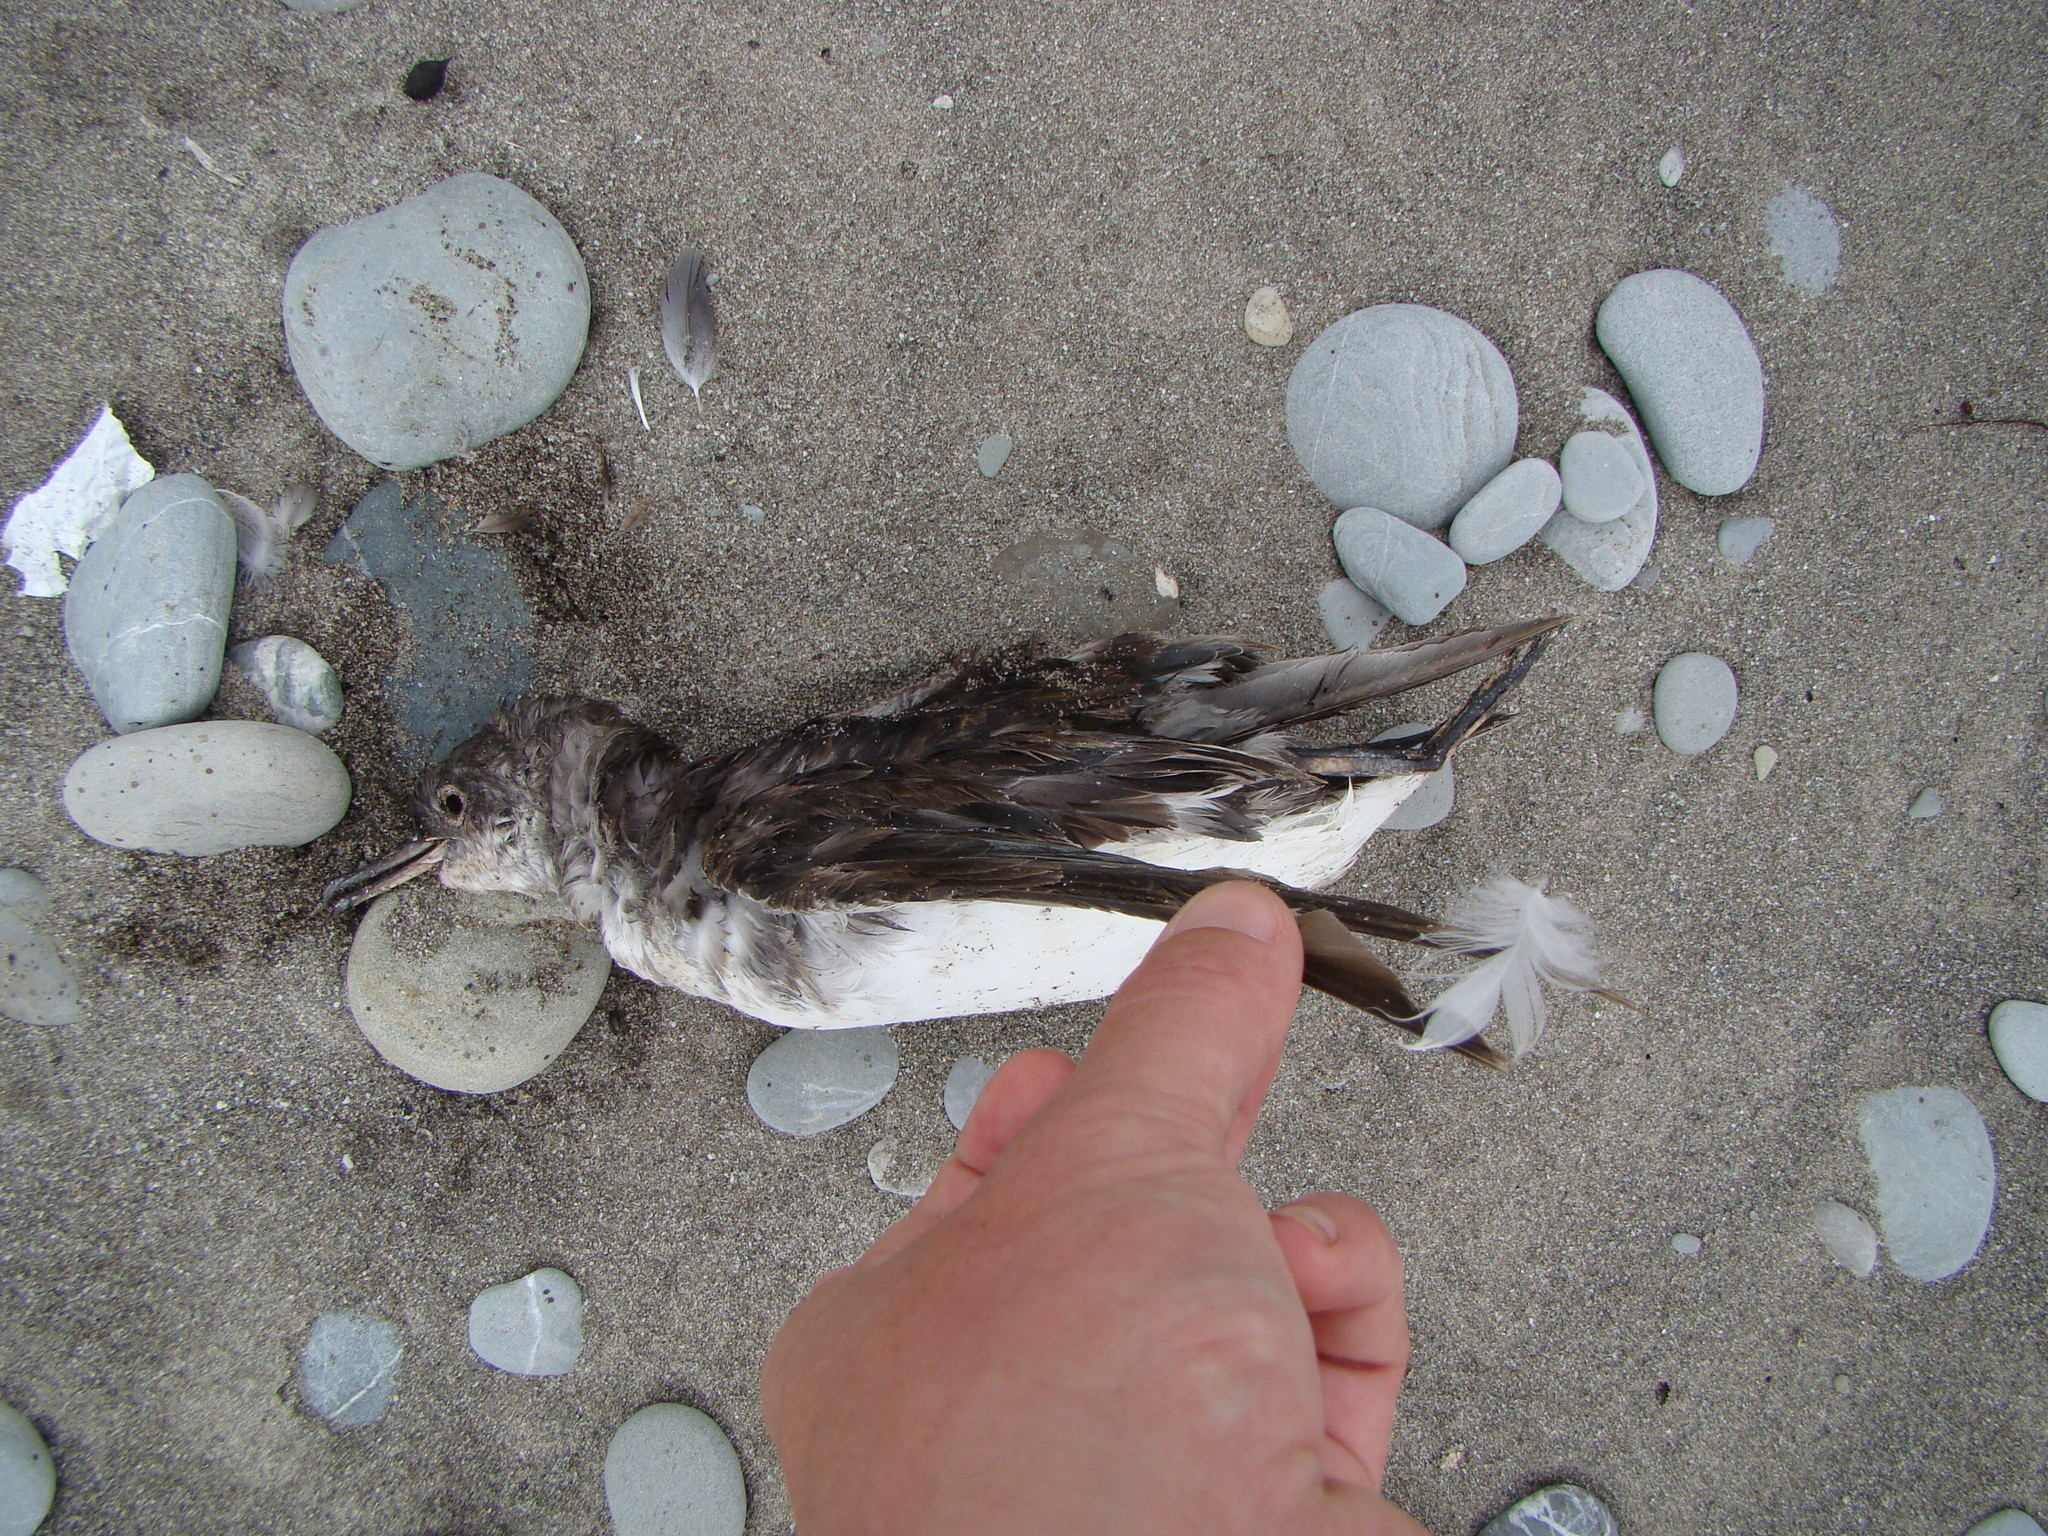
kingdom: Animalia
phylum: Chordata
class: Aves
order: Procellariiformes
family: Procellariidae
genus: Puffinus
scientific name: Puffinus gavia
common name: Fluttering shearwater
